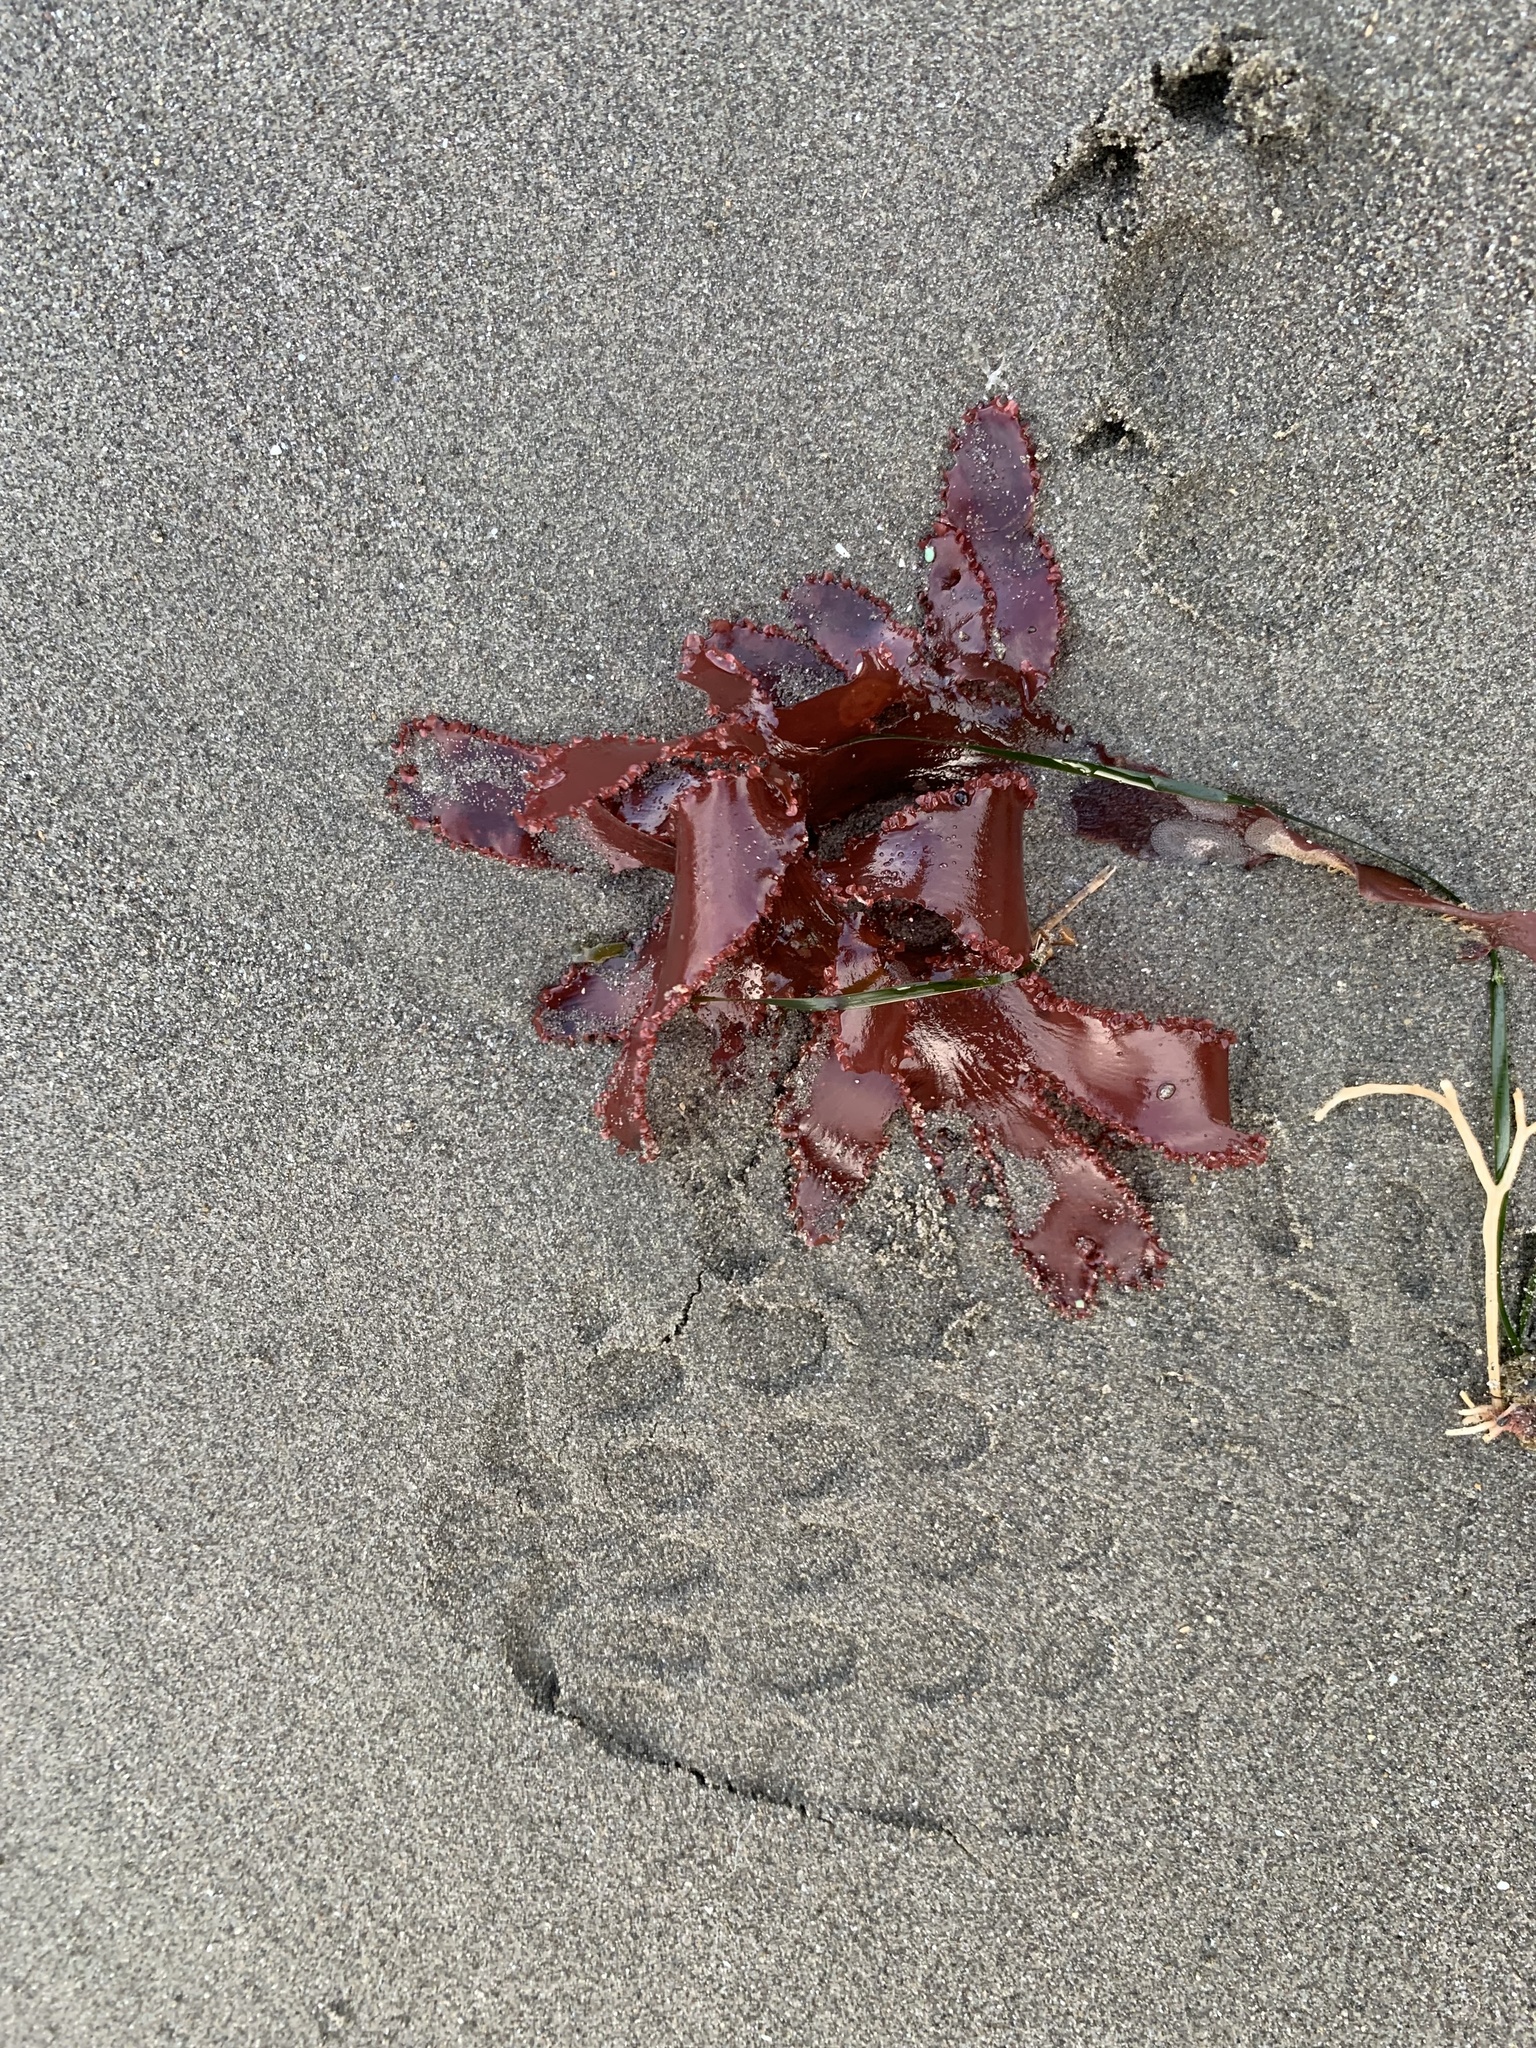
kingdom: Plantae
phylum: Rhodophyta
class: Florideophyceae
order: Ceramiales
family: Delesseriaceae
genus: Cryptopleura
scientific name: Cryptopleura ruprechtiana
